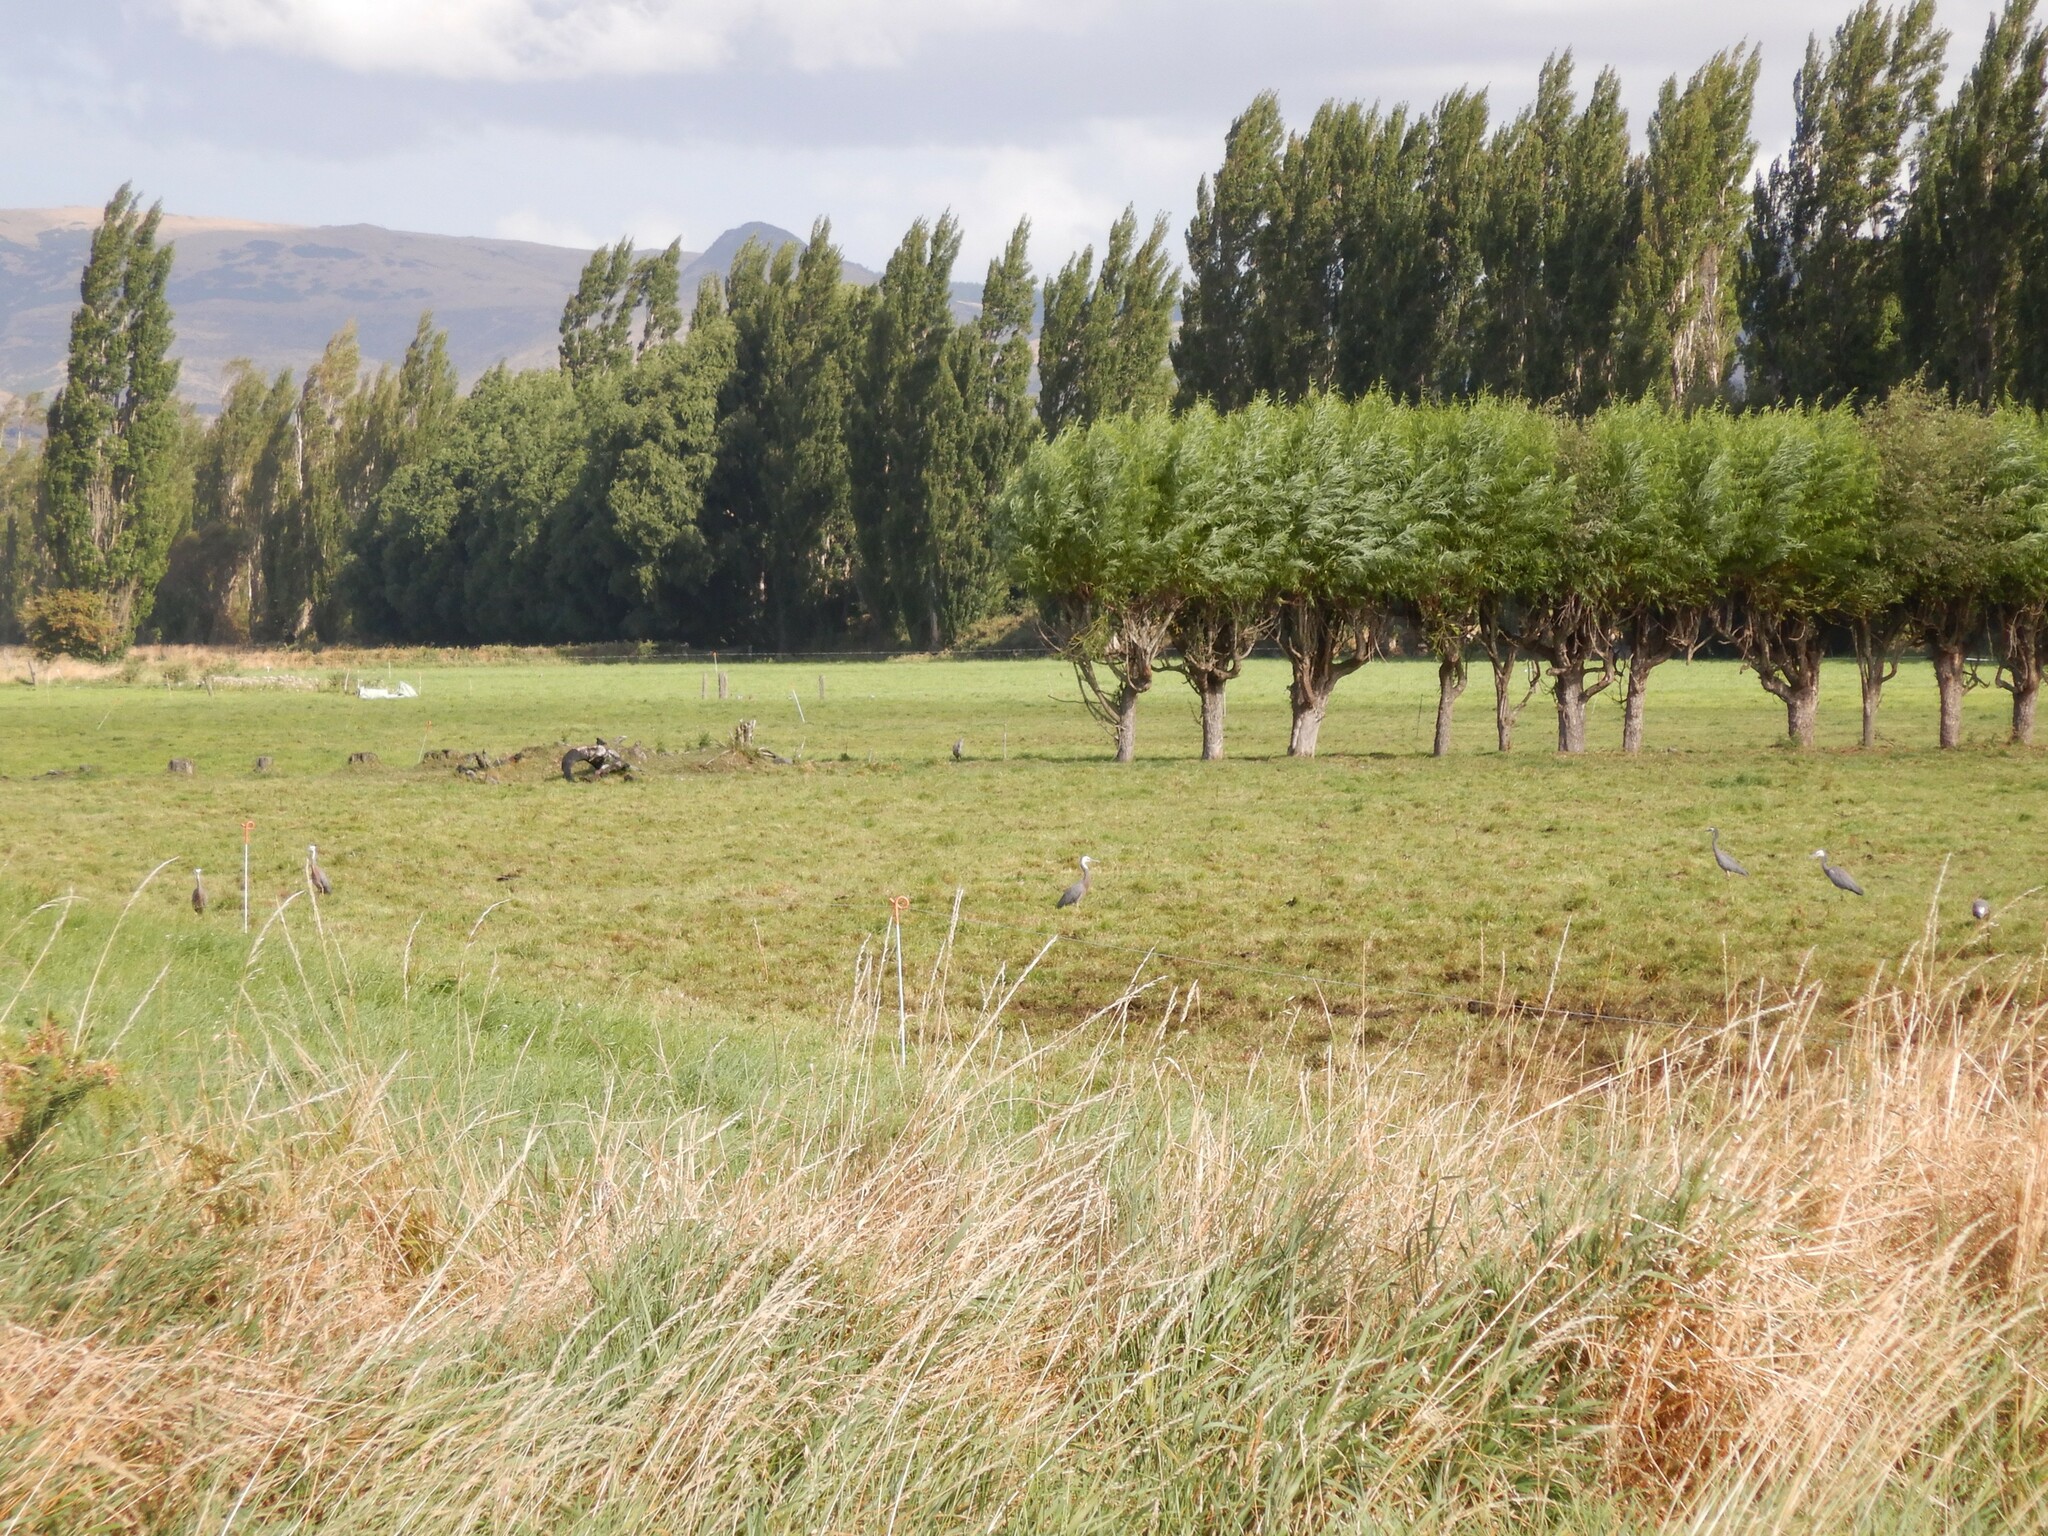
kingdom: Animalia
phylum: Chordata
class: Aves
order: Pelecaniformes
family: Ardeidae
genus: Egretta
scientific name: Egretta novaehollandiae
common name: White-faced heron
